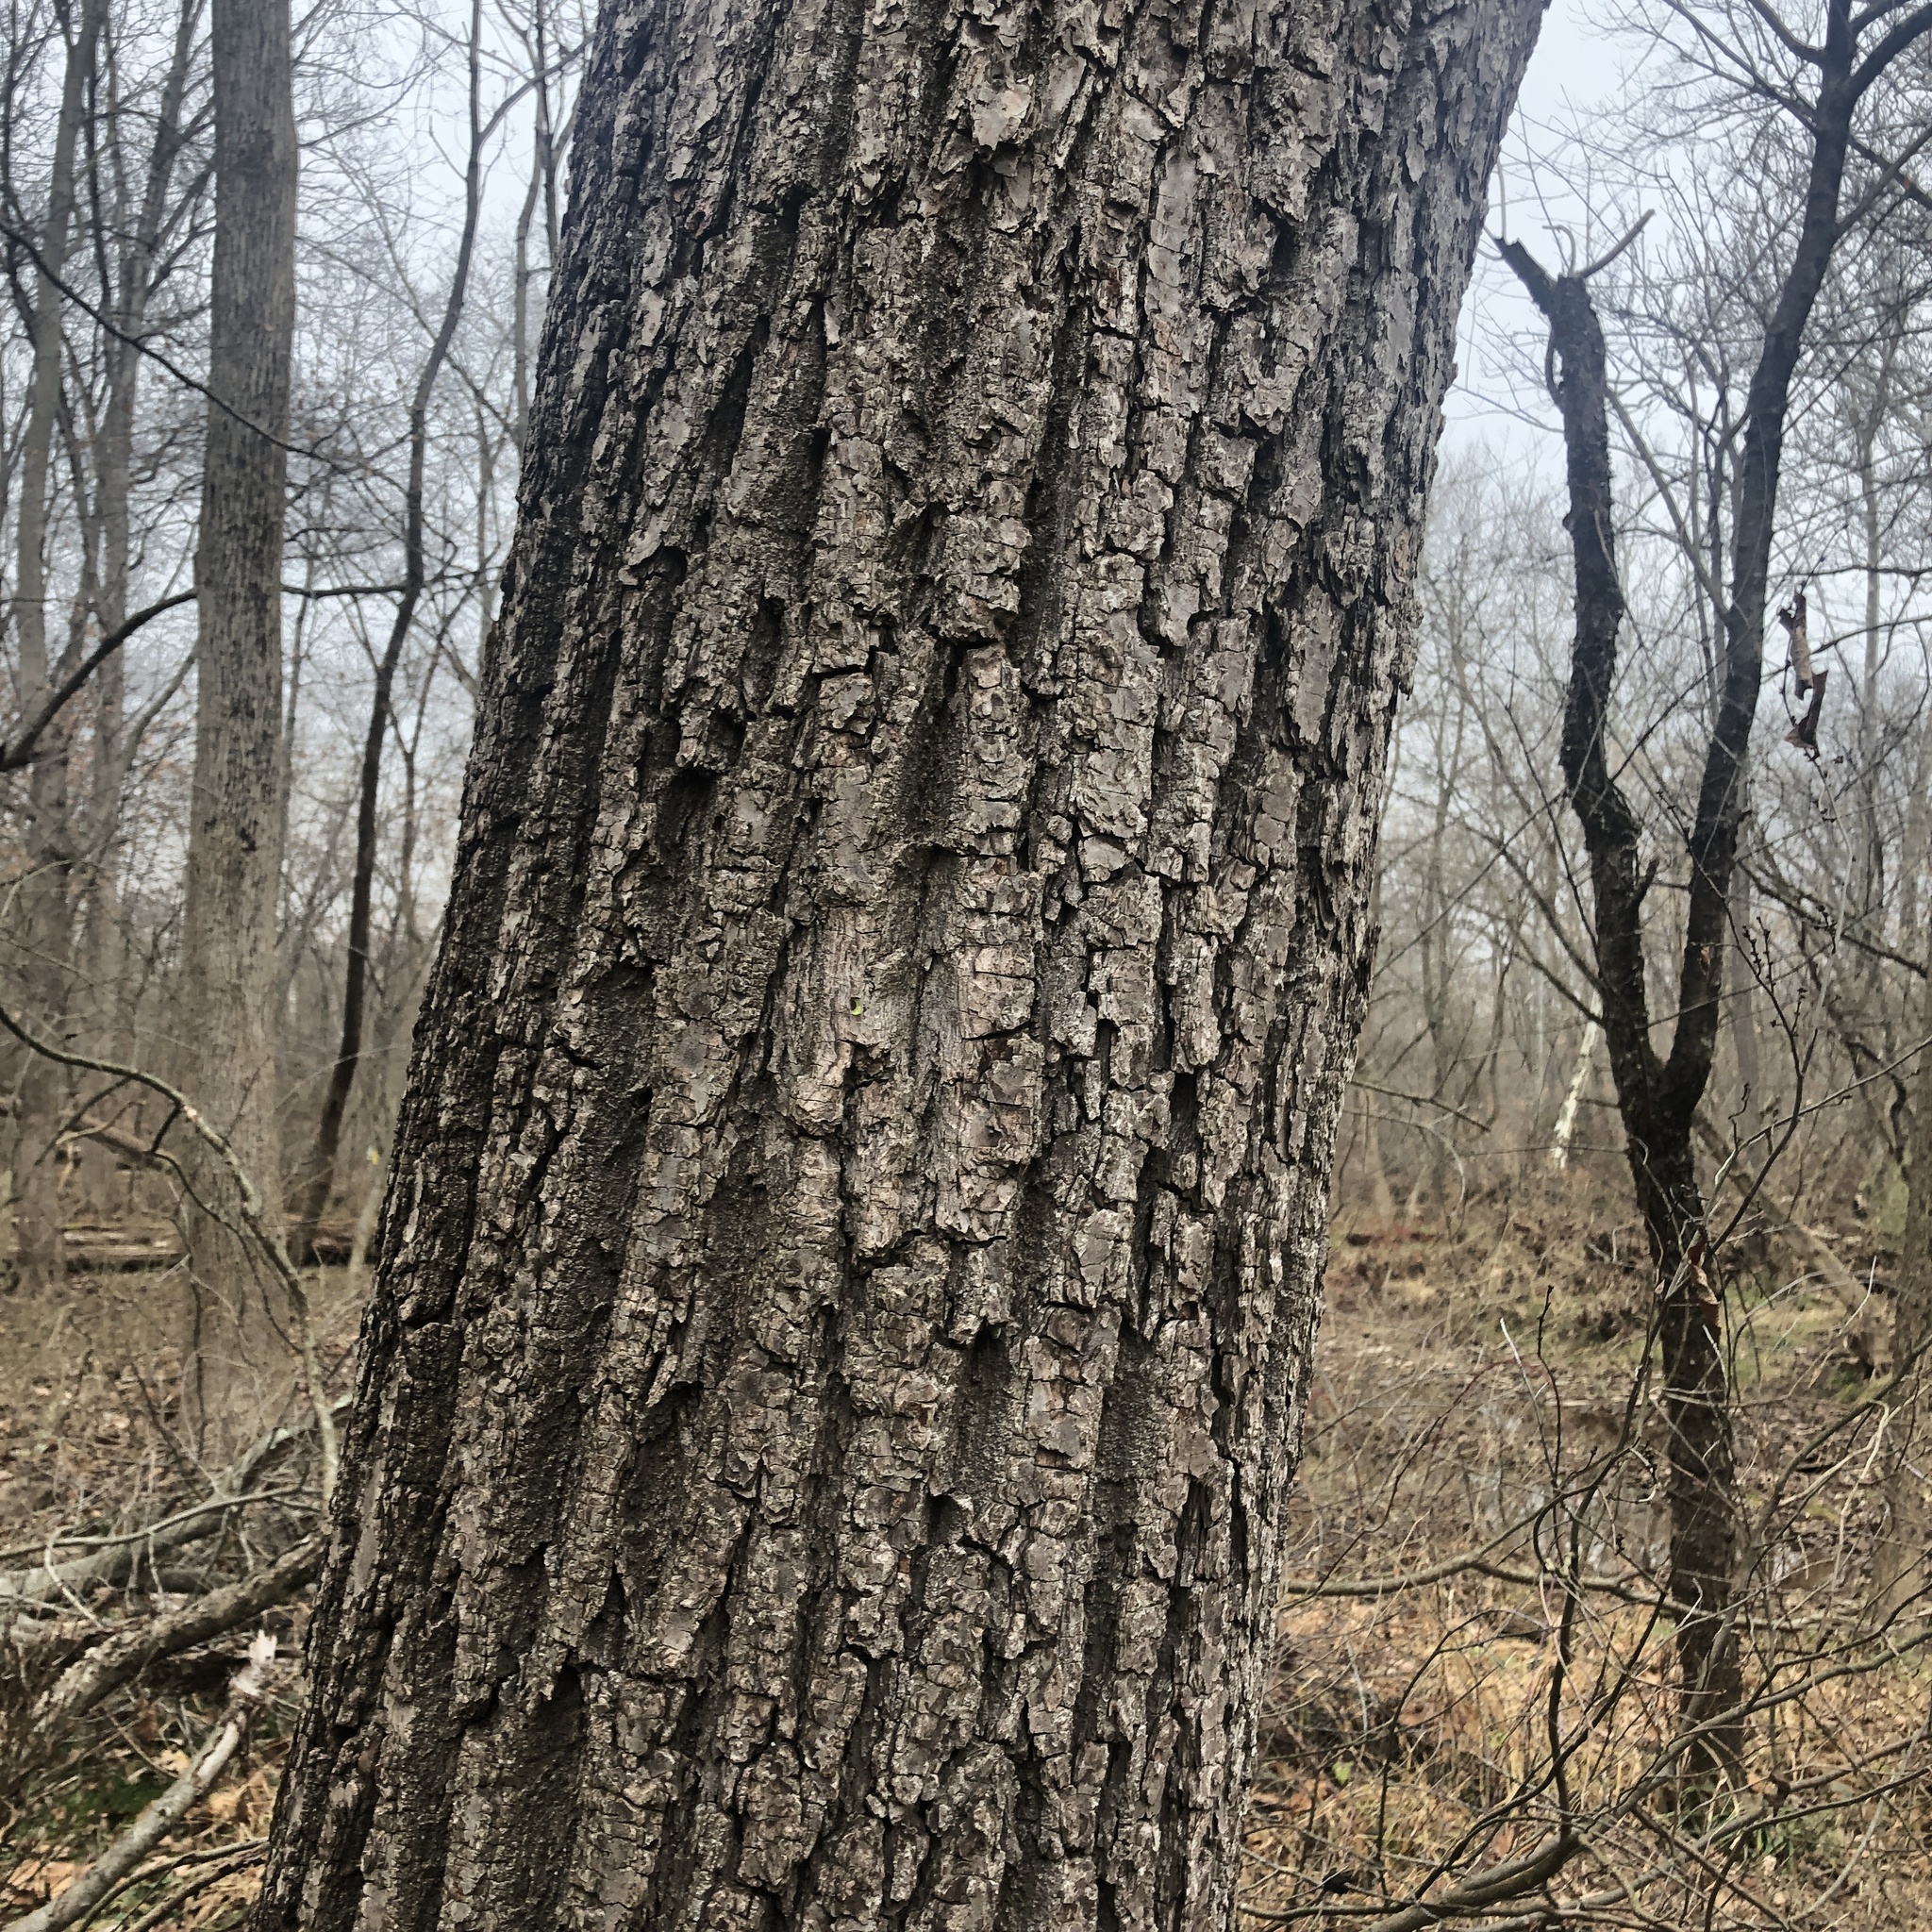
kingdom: Plantae
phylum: Tracheophyta
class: Magnoliopsida
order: Fagales
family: Juglandaceae
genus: Juglans
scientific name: Juglans nigra
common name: Black walnut
